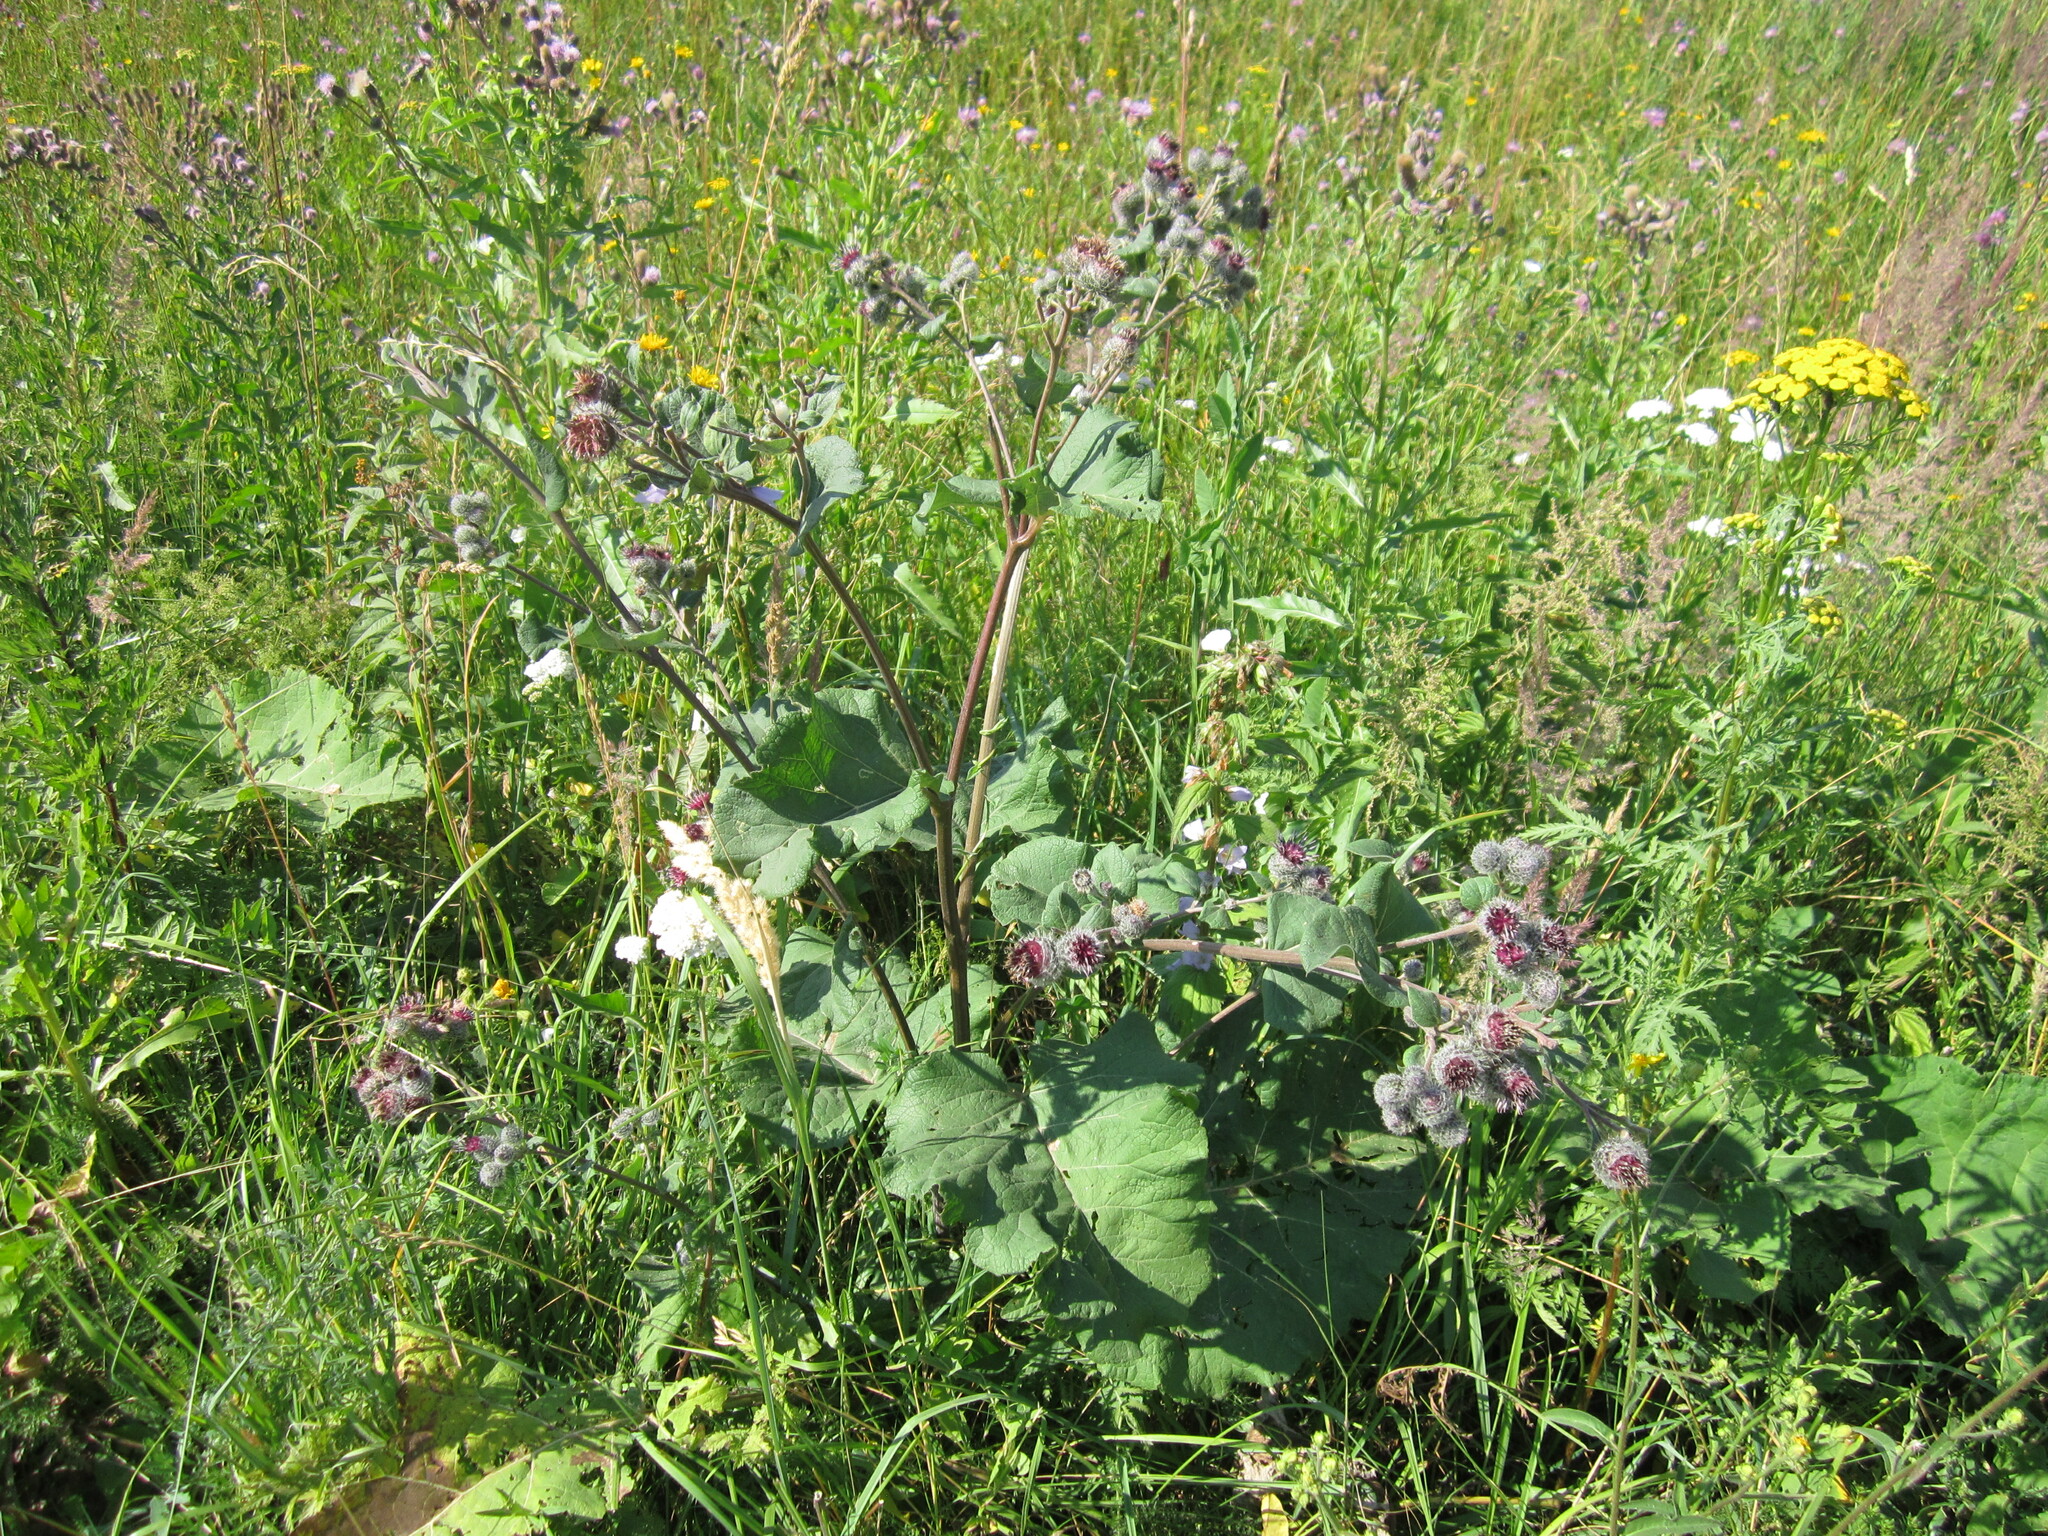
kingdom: Plantae
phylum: Tracheophyta
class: Magnoliopsida
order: Asterales
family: Asteraceae
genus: Arctium
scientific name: Arctium tomentosum
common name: Woolly burdock
